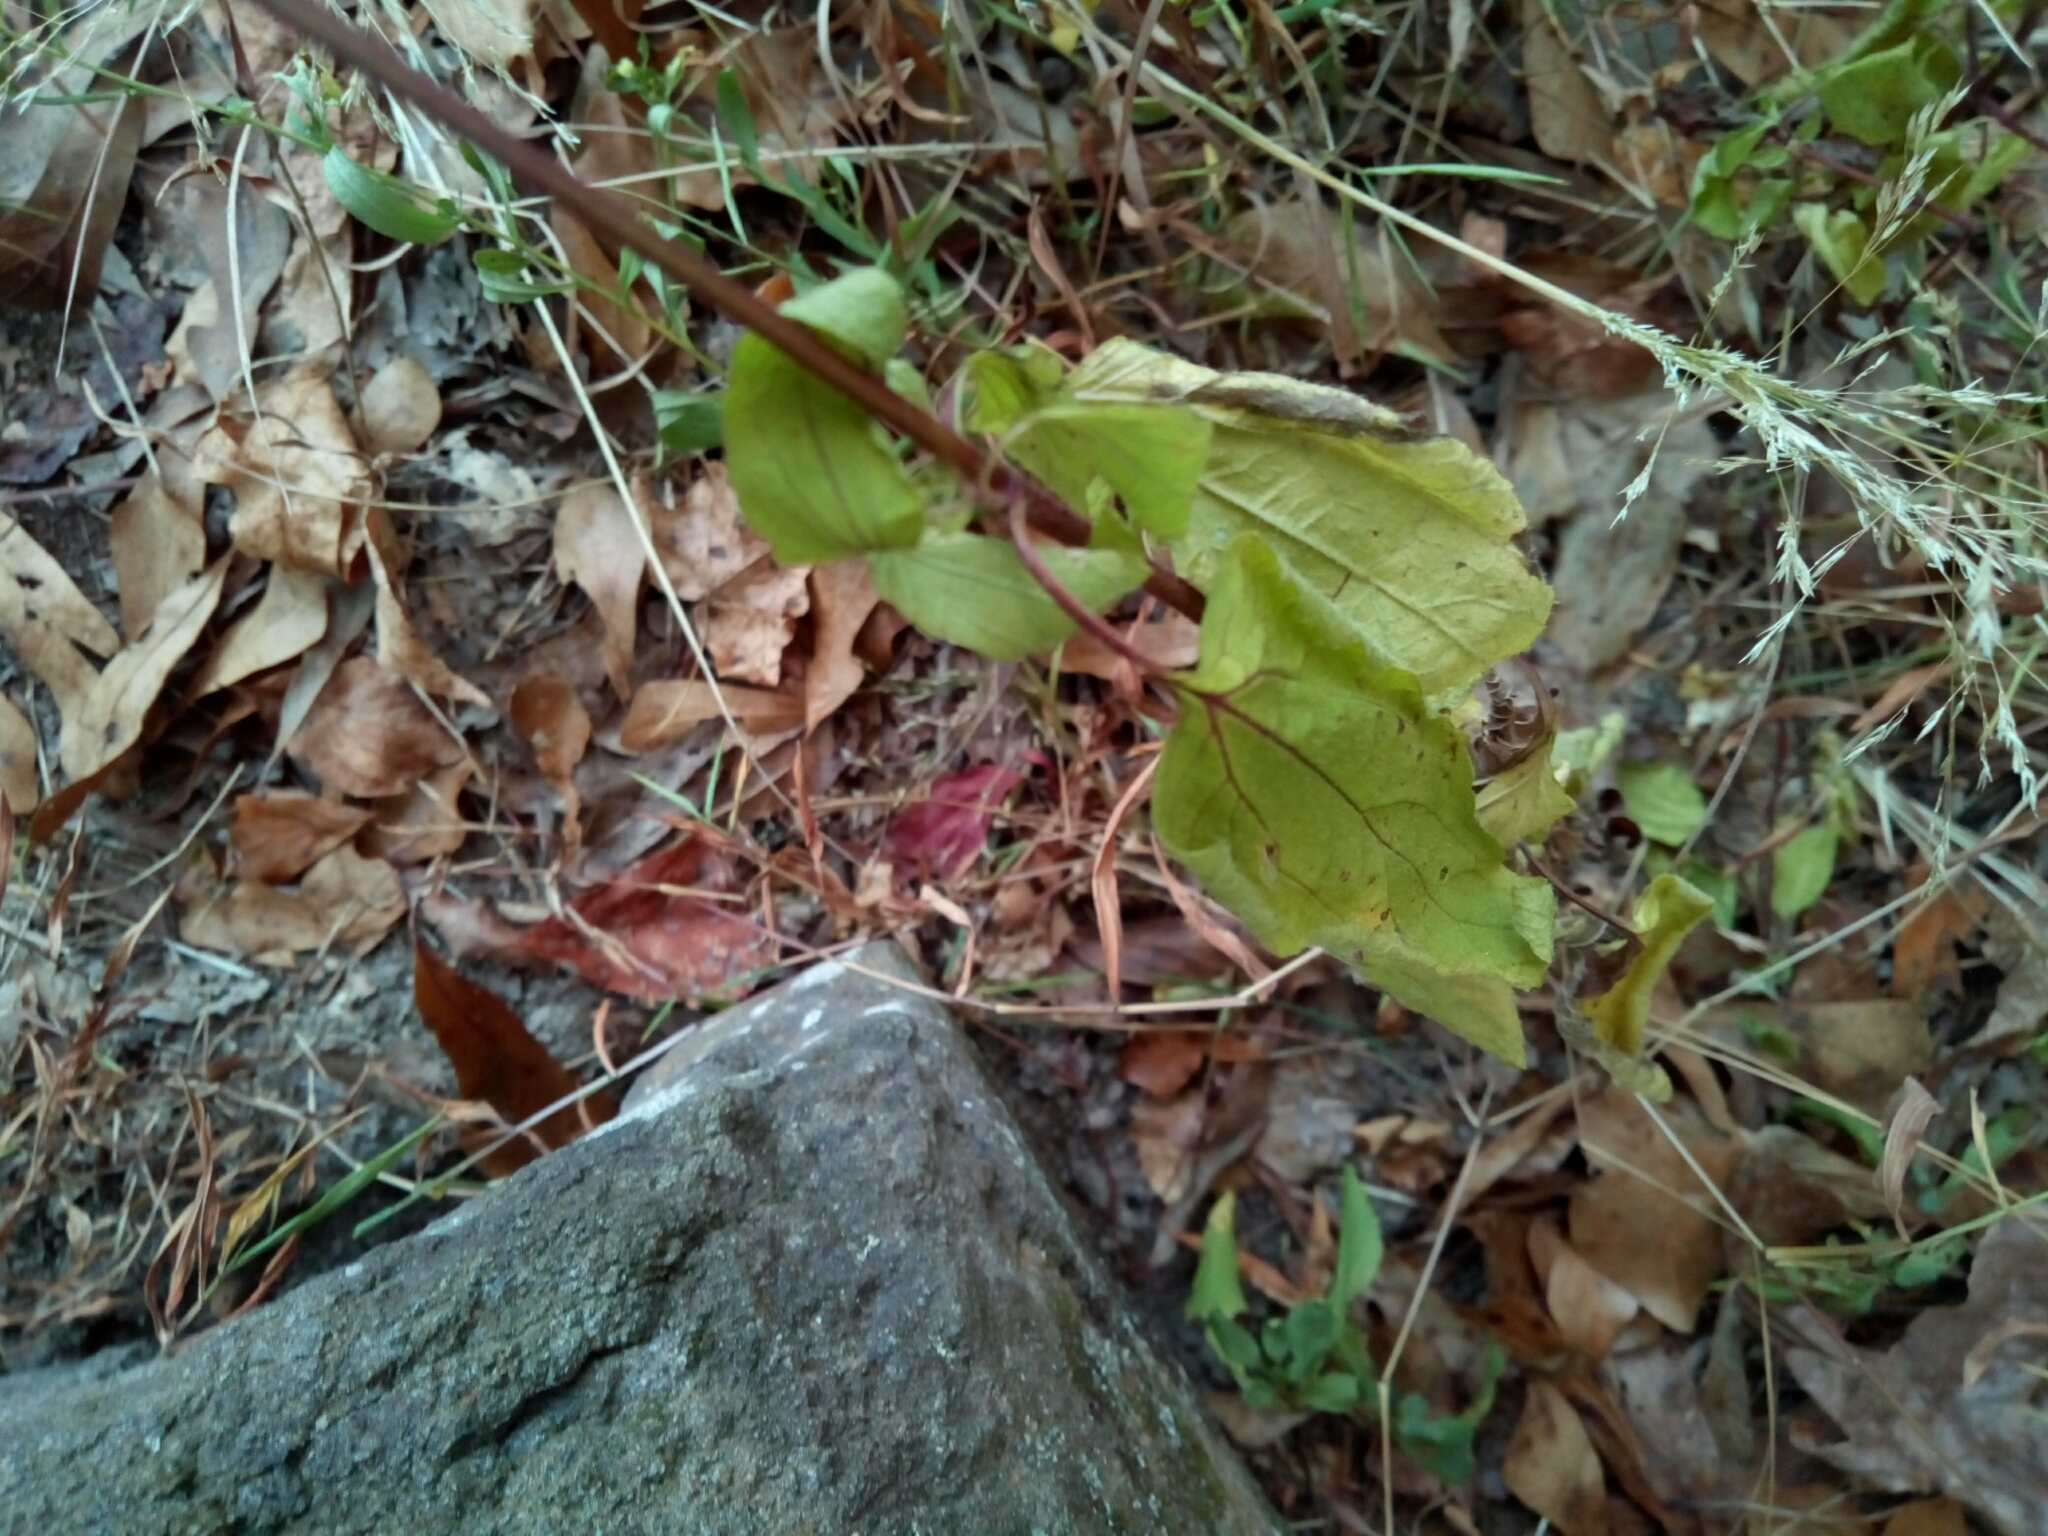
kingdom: Plantae
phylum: Tracheophyta
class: Magnoliopsida
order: Asterales
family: Asteraceae
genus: Conoclinium
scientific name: Conoclinium coelestinum
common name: Blue mistflower
